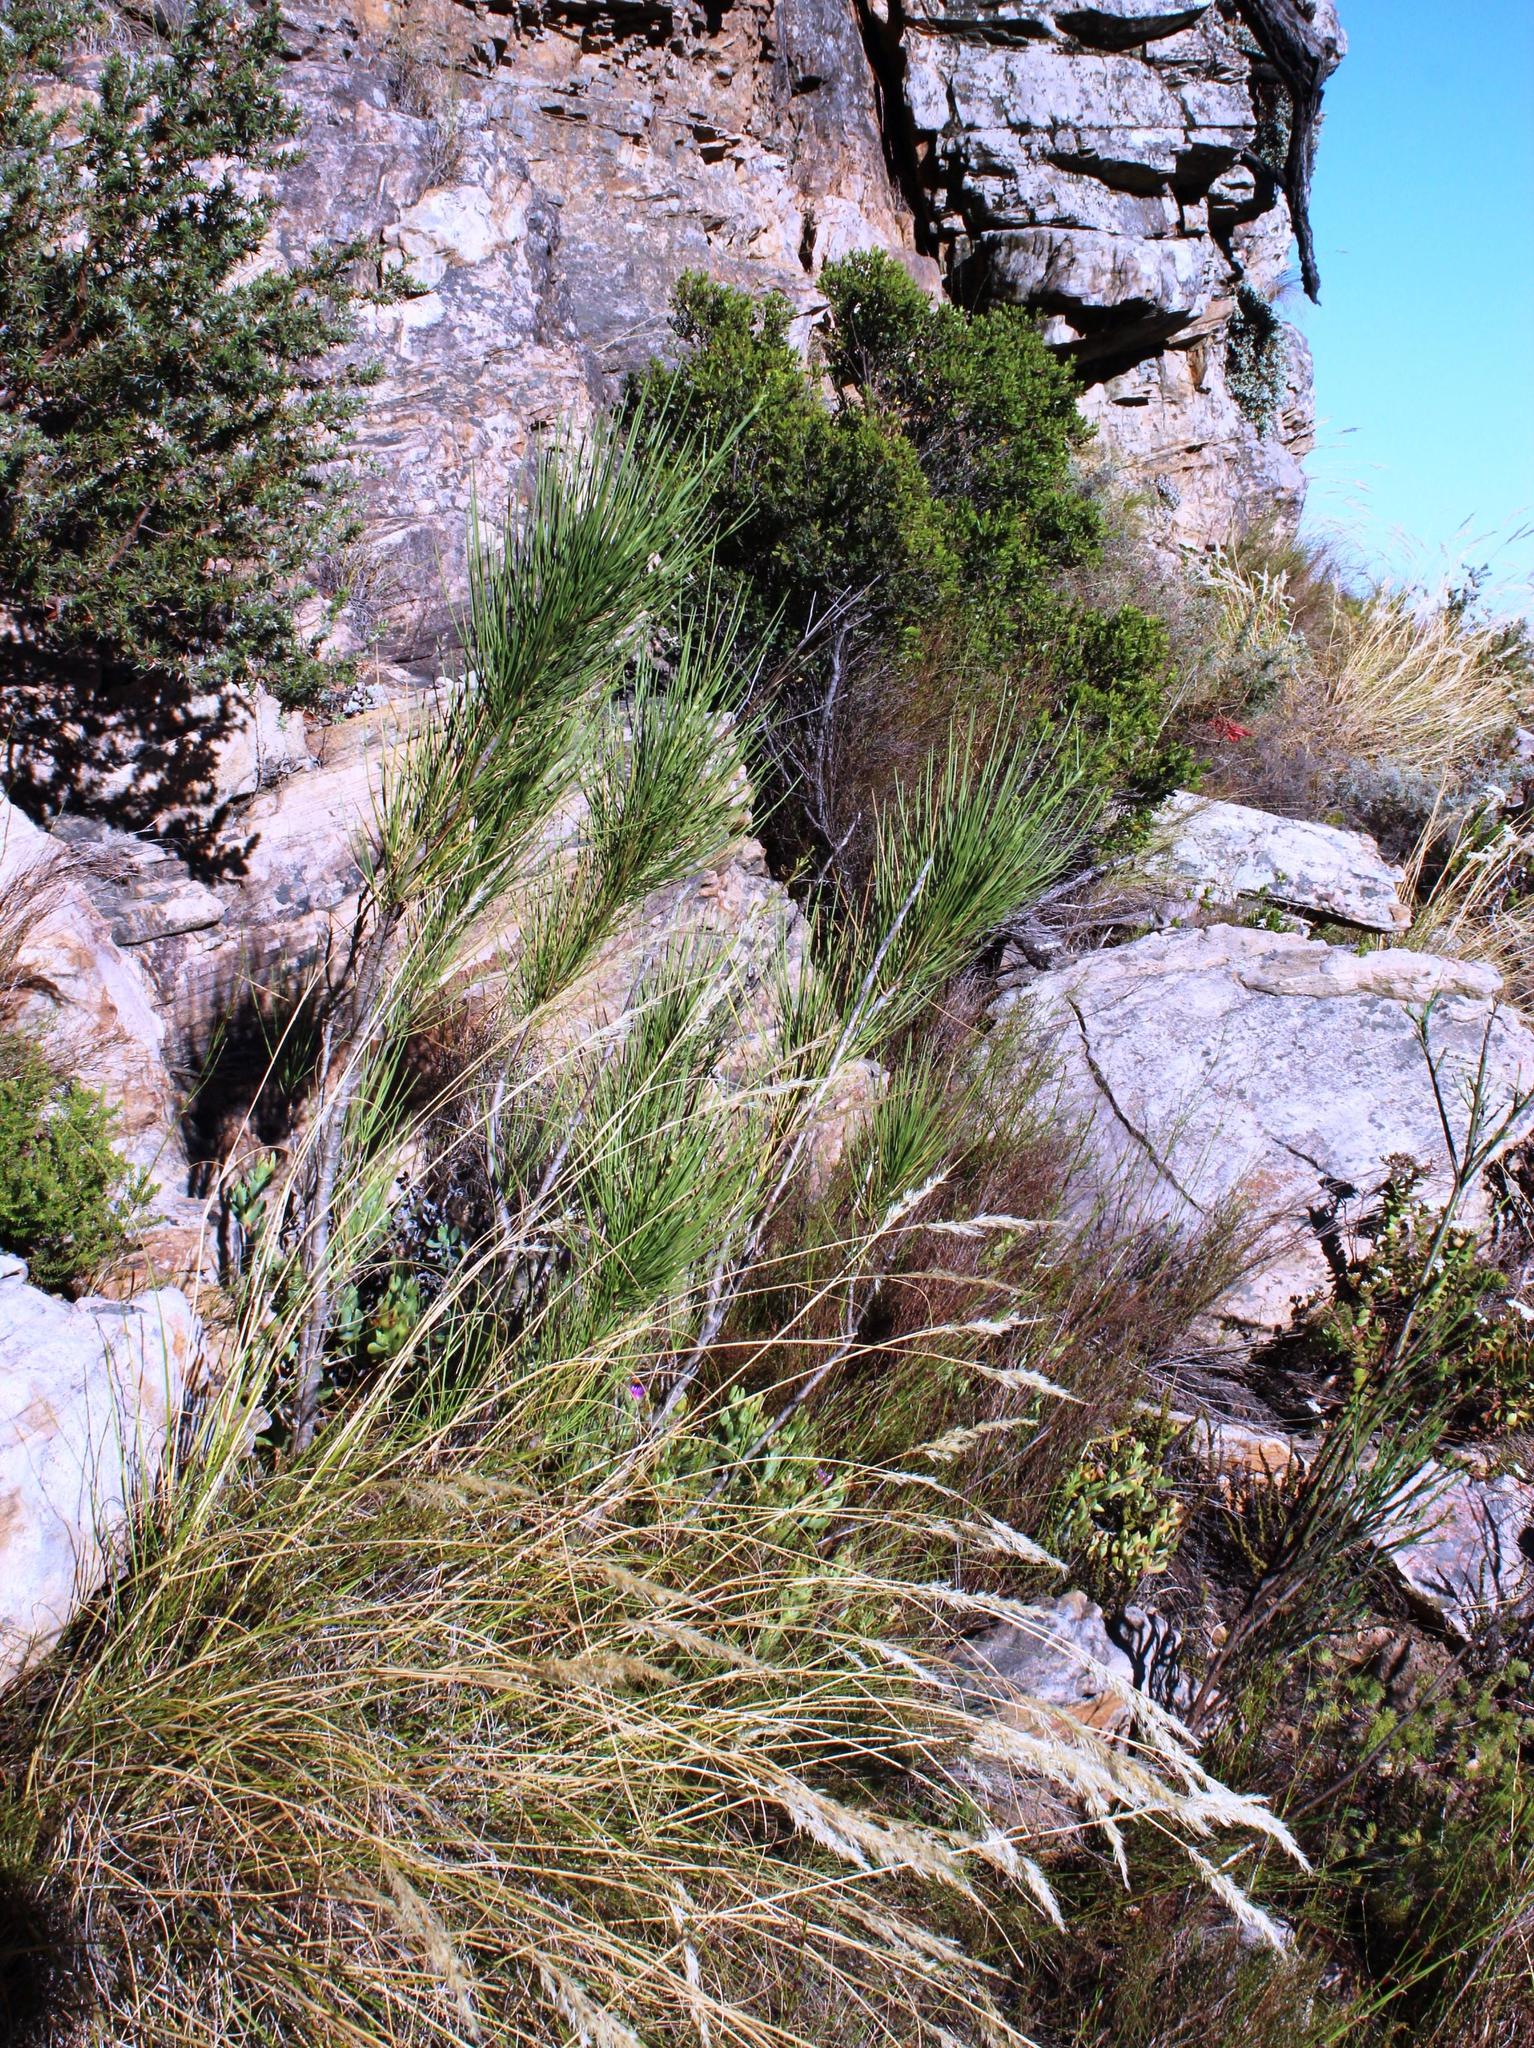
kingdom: Plantae
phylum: Tracheophyta
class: Magnoliopsida
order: Apiales
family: Apiaceae
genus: Anginon
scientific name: Anginon difforme
